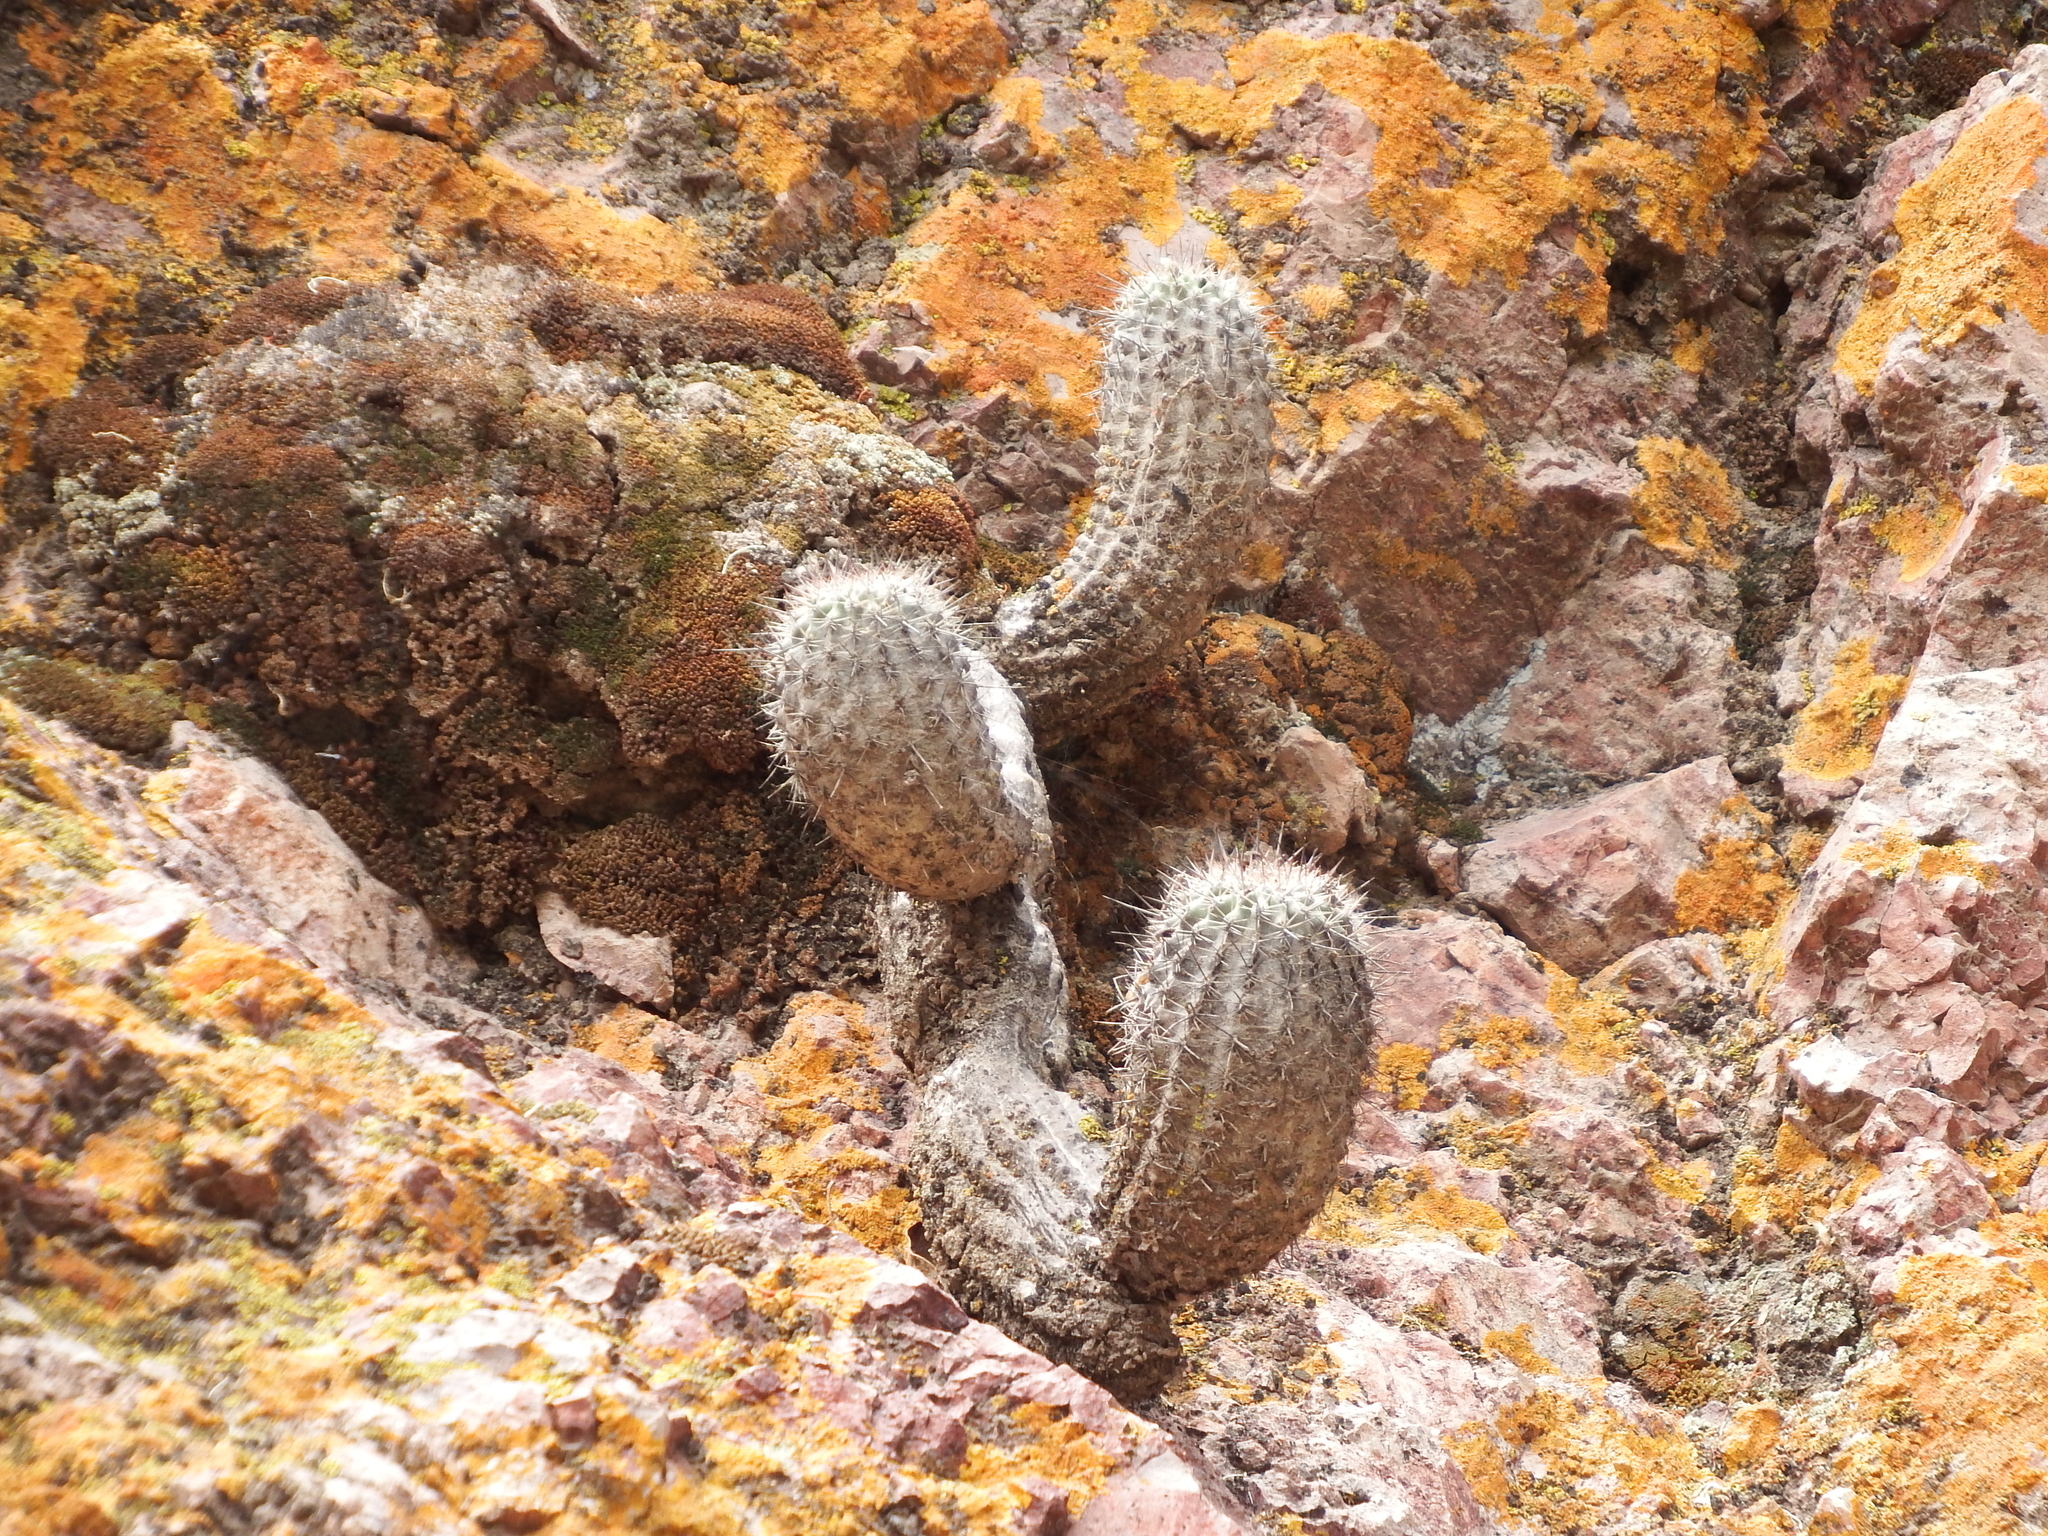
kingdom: Plantae
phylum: Tracheophyta
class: Magnoliopsida
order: Caryophyllales
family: Cactaceae
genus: Oreocereus
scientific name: Oreocereus hempelianus
